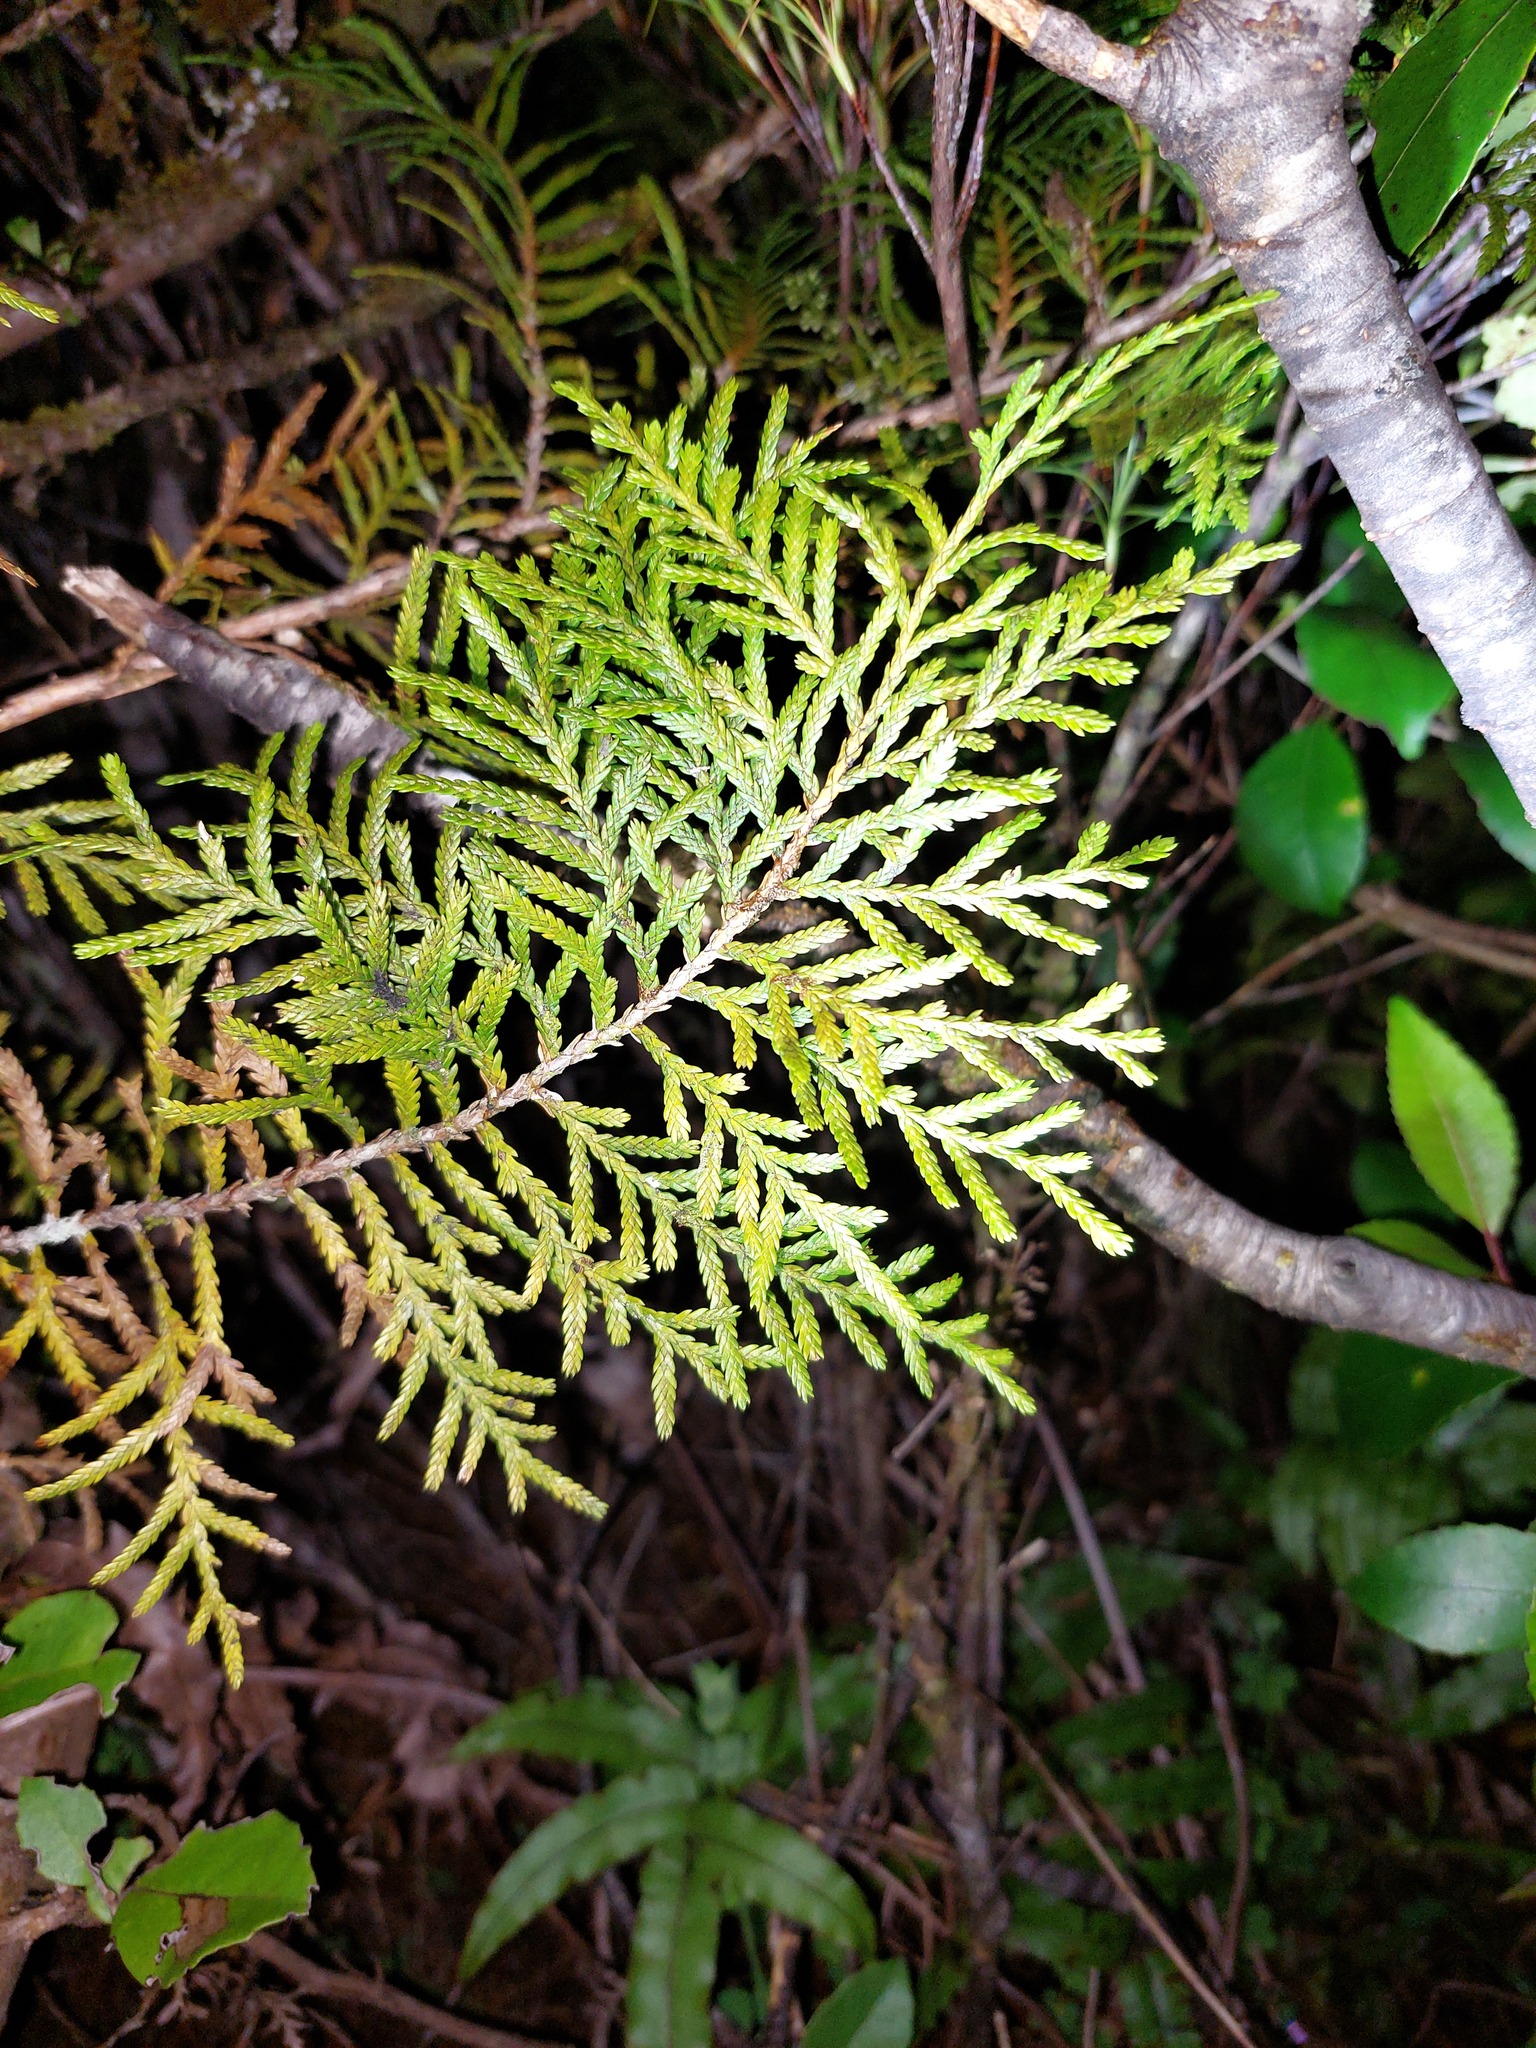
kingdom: Plantae
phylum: Tracheophyta
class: Pinopsida
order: Pinales
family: Cupressaceae
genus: Libocedrus
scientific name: Libocedrus bidwillii
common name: Cedar
